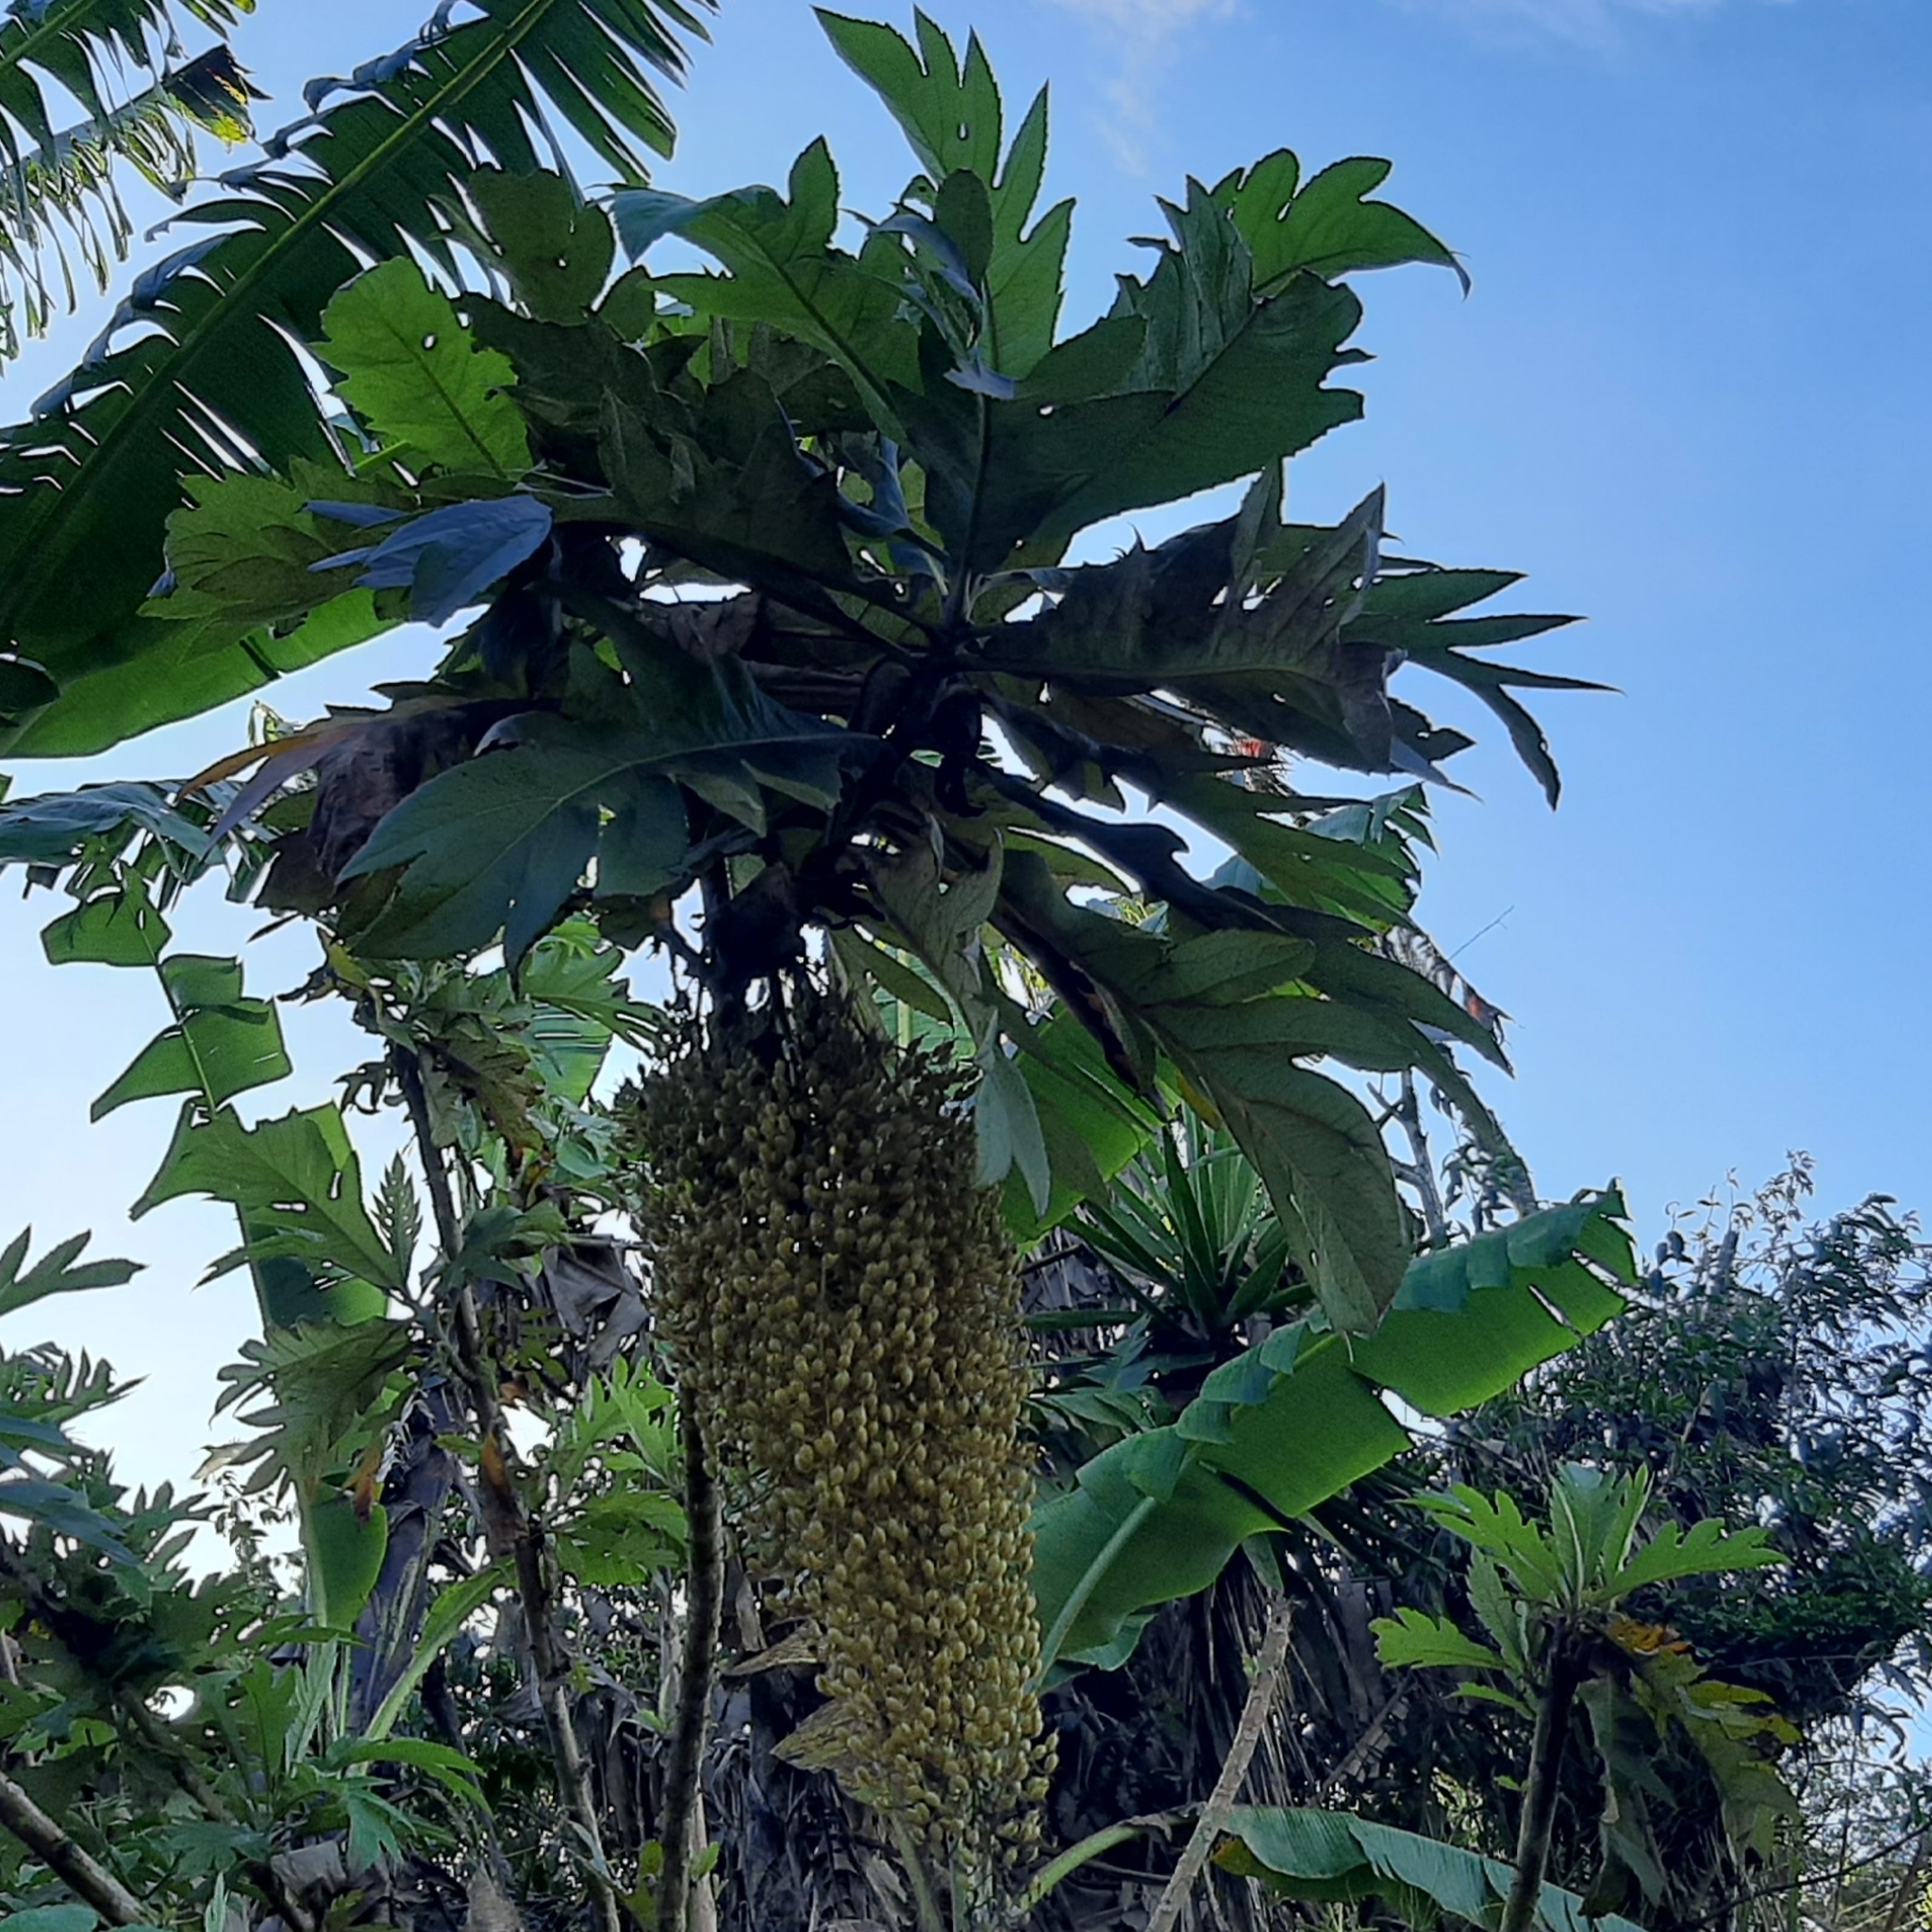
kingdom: Plantae
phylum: Tracheophyta
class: Magnoliopsida
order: Ranunculales
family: Papaveraceae
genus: Bocconia
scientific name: Bocconia frutescens
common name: Tree poppy
